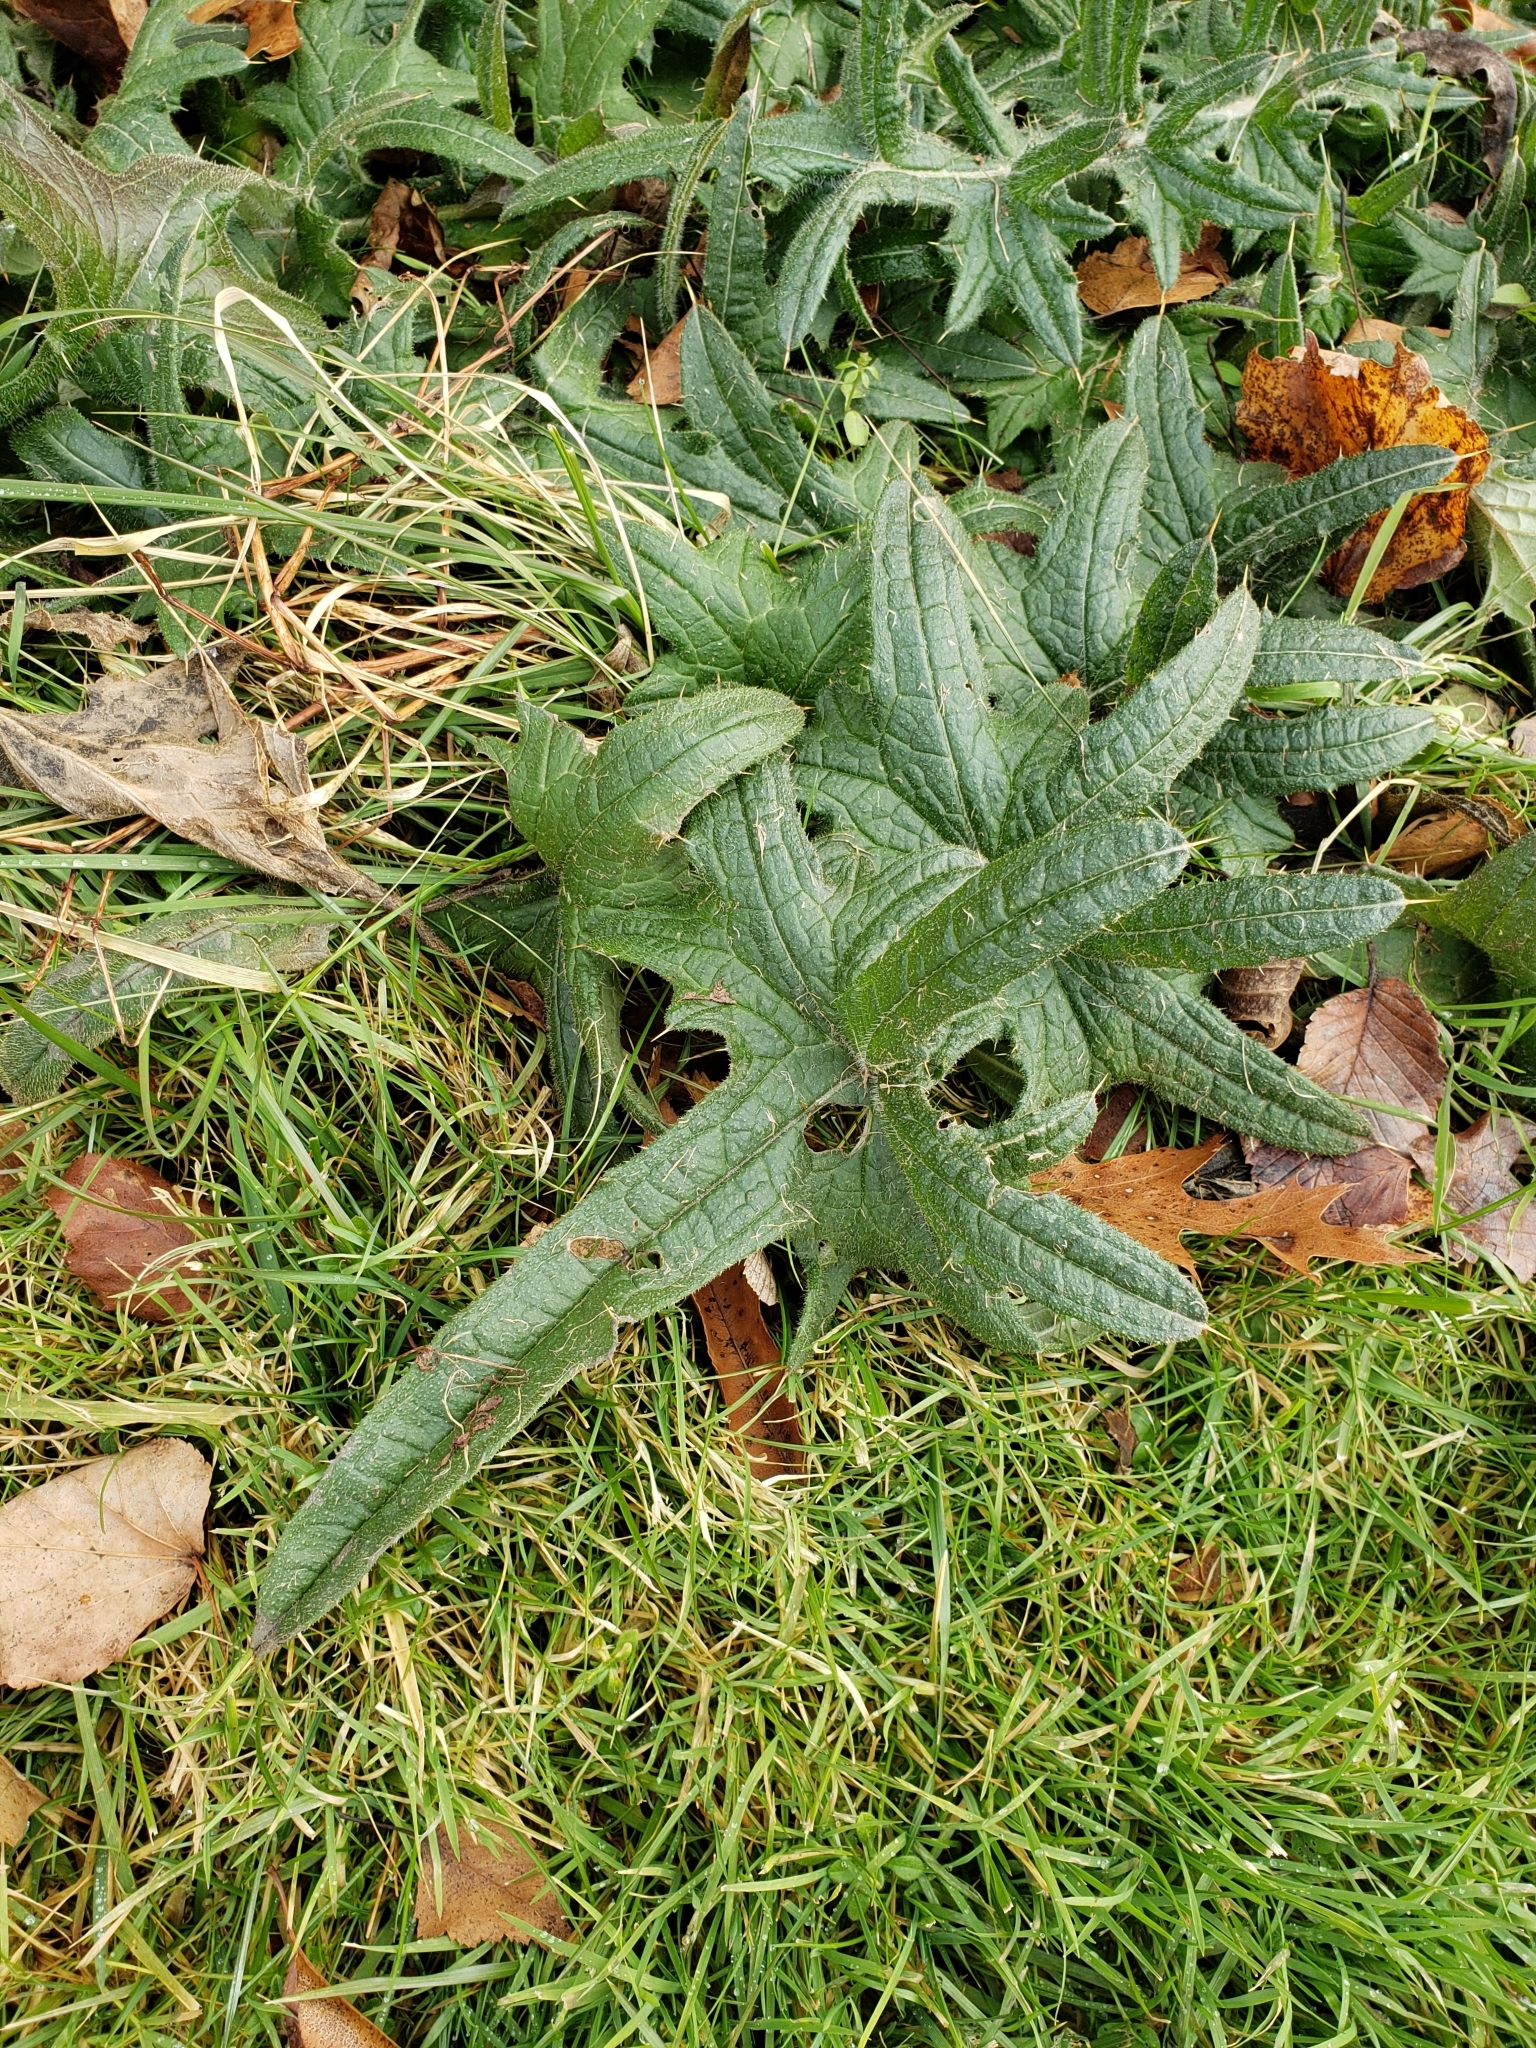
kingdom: Plantae
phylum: Tracheophyta
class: Magnoliopsida
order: Asterales
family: Asteraceae
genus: Cirsium
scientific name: Cirsium vulgare
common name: Bull thistle
